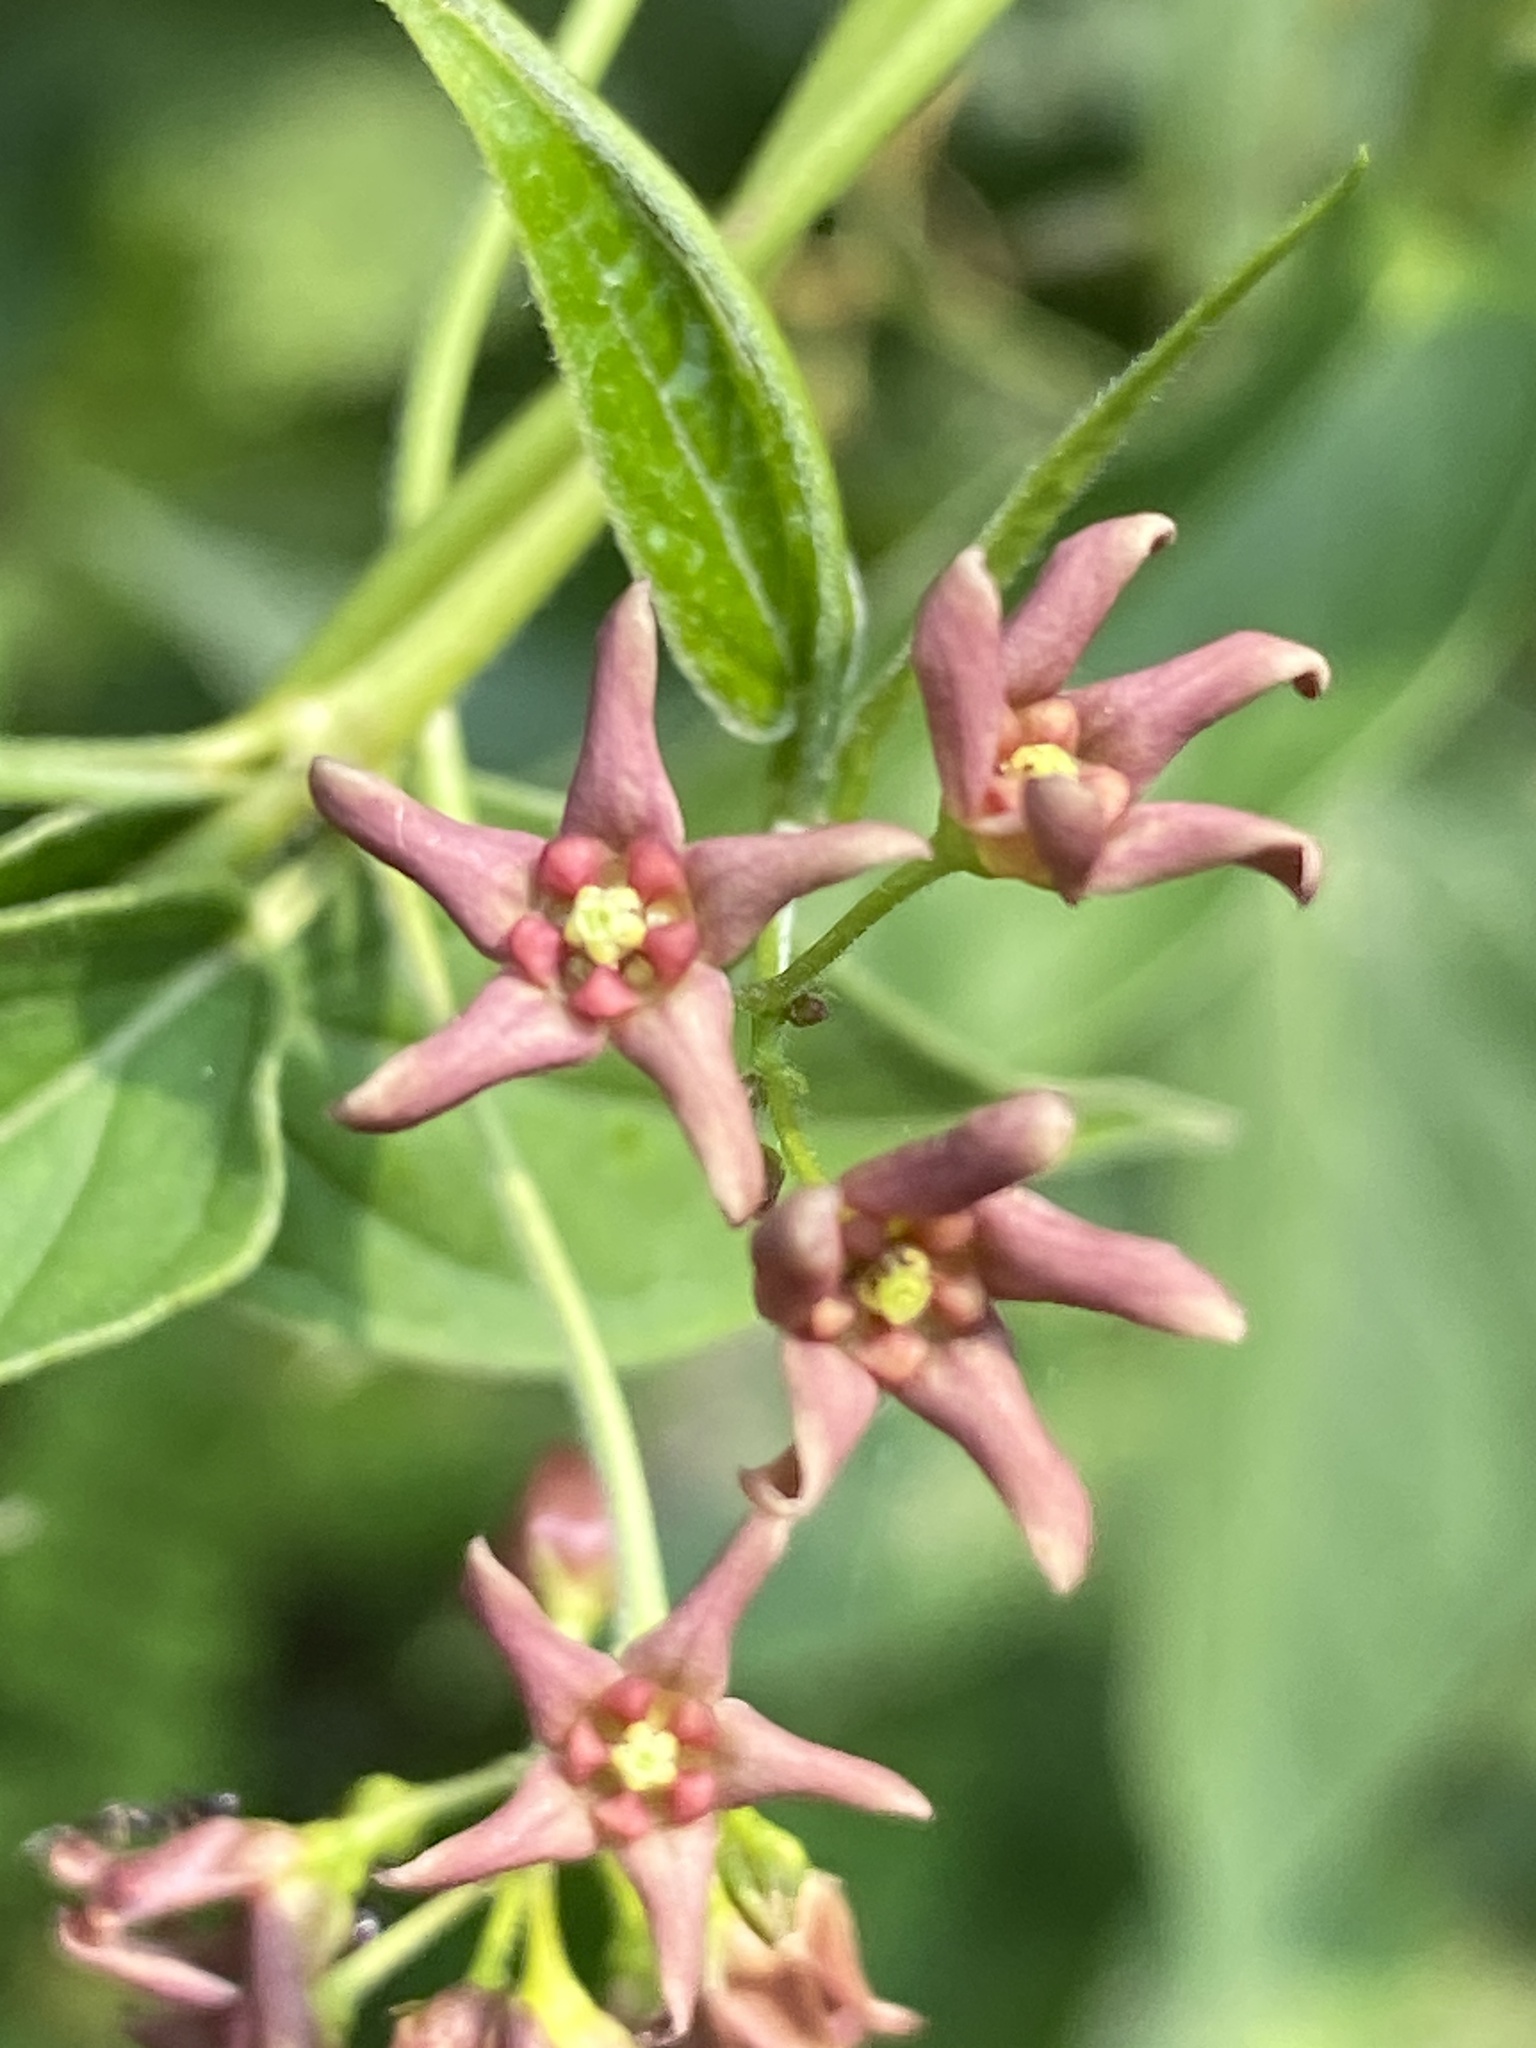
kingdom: Plantae
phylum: Tracheophyta
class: Magnoliopsida
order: Gentianales
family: Apocynaceae
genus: Vincetoxicum
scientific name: Vincetoxicum rossicum
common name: Dog-strangling vine
